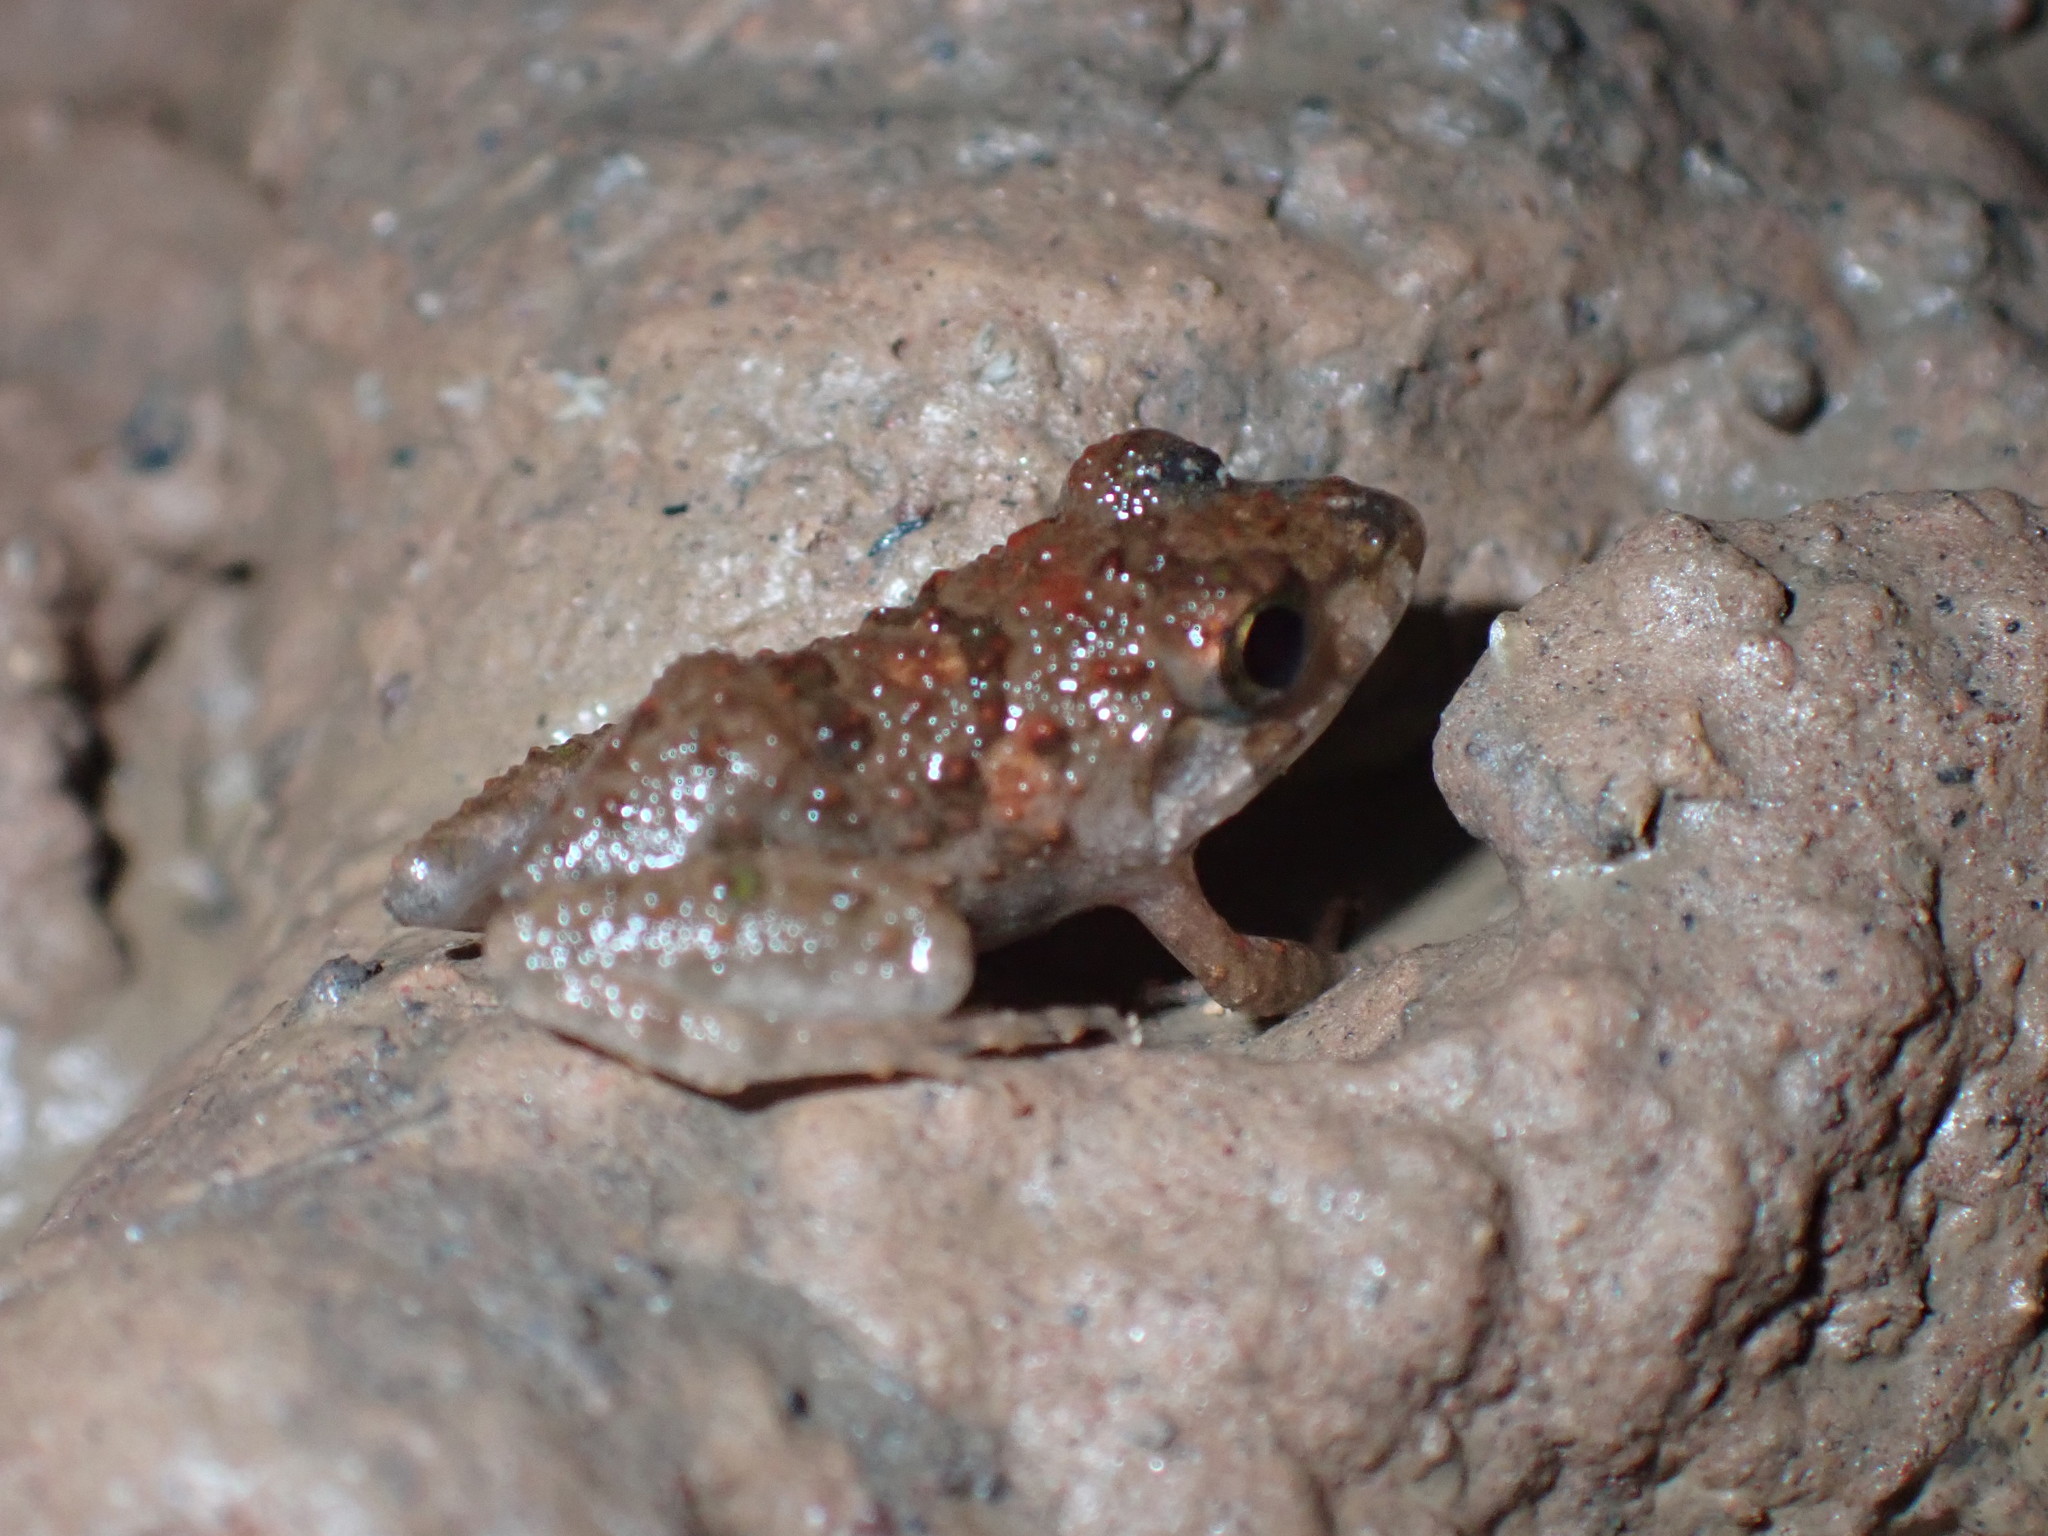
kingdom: Animalia
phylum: Chordata
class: Amphibia
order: Anura
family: Dicroglossidae
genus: Fejervarya
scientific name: Fejervarya limnocharis
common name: Asian grass frog/common pond frog/field frog/grass frog/indian rice frog
